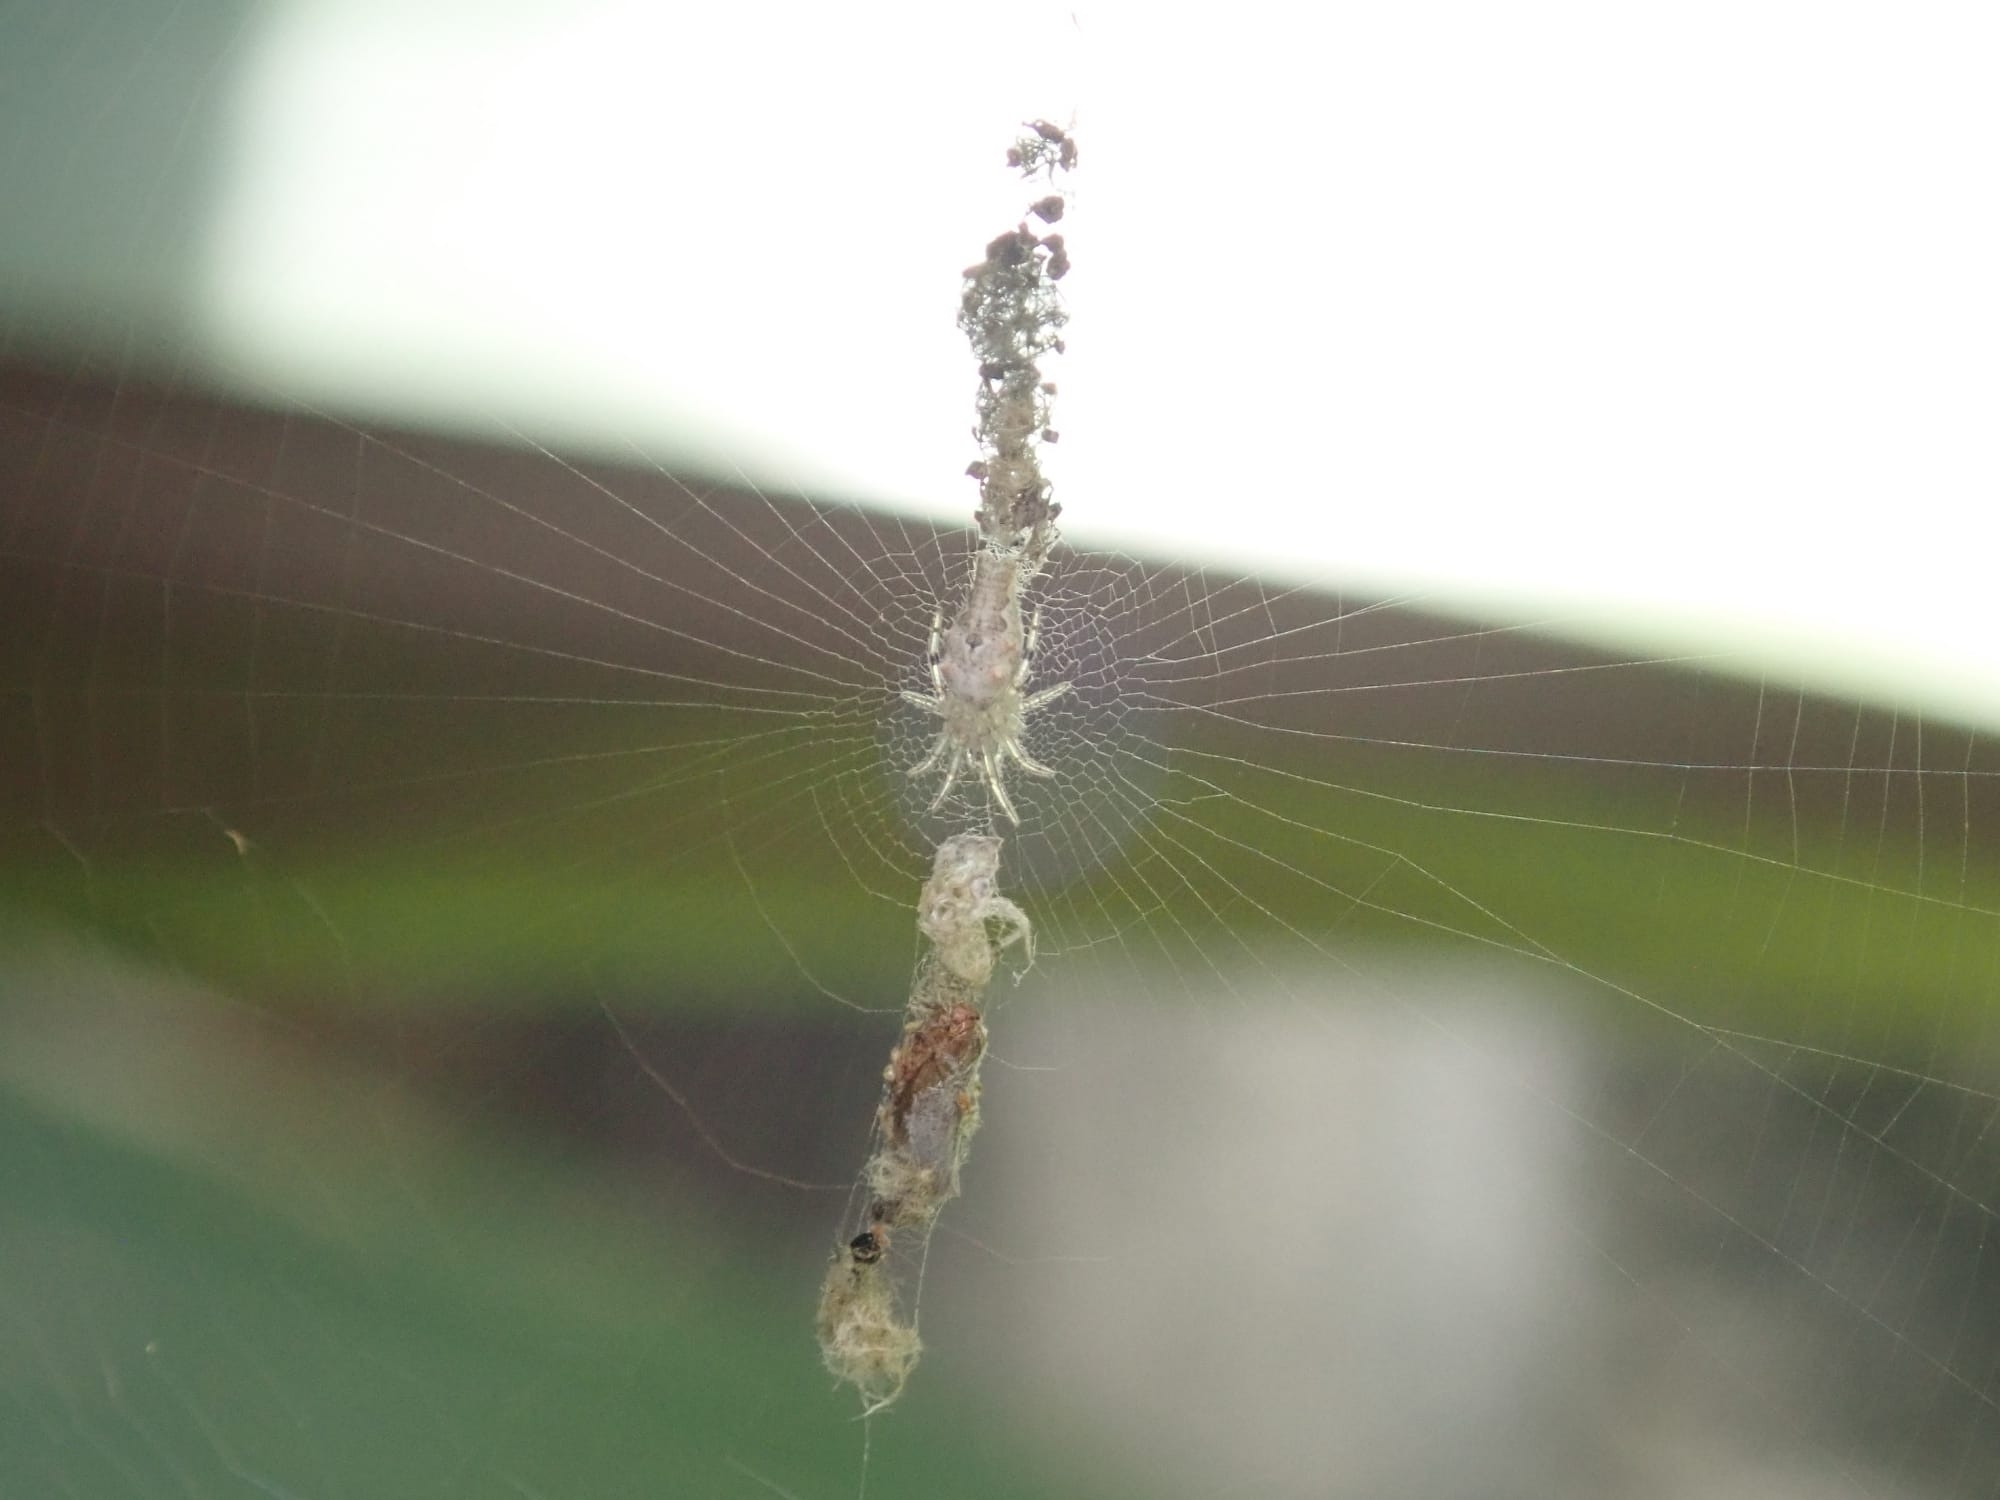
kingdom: Animalia
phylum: Arthropoda
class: Arachnida
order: Araneae
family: Araneidae
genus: Allocyclosa
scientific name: Allocyclosa bifurca
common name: Orb weavers
